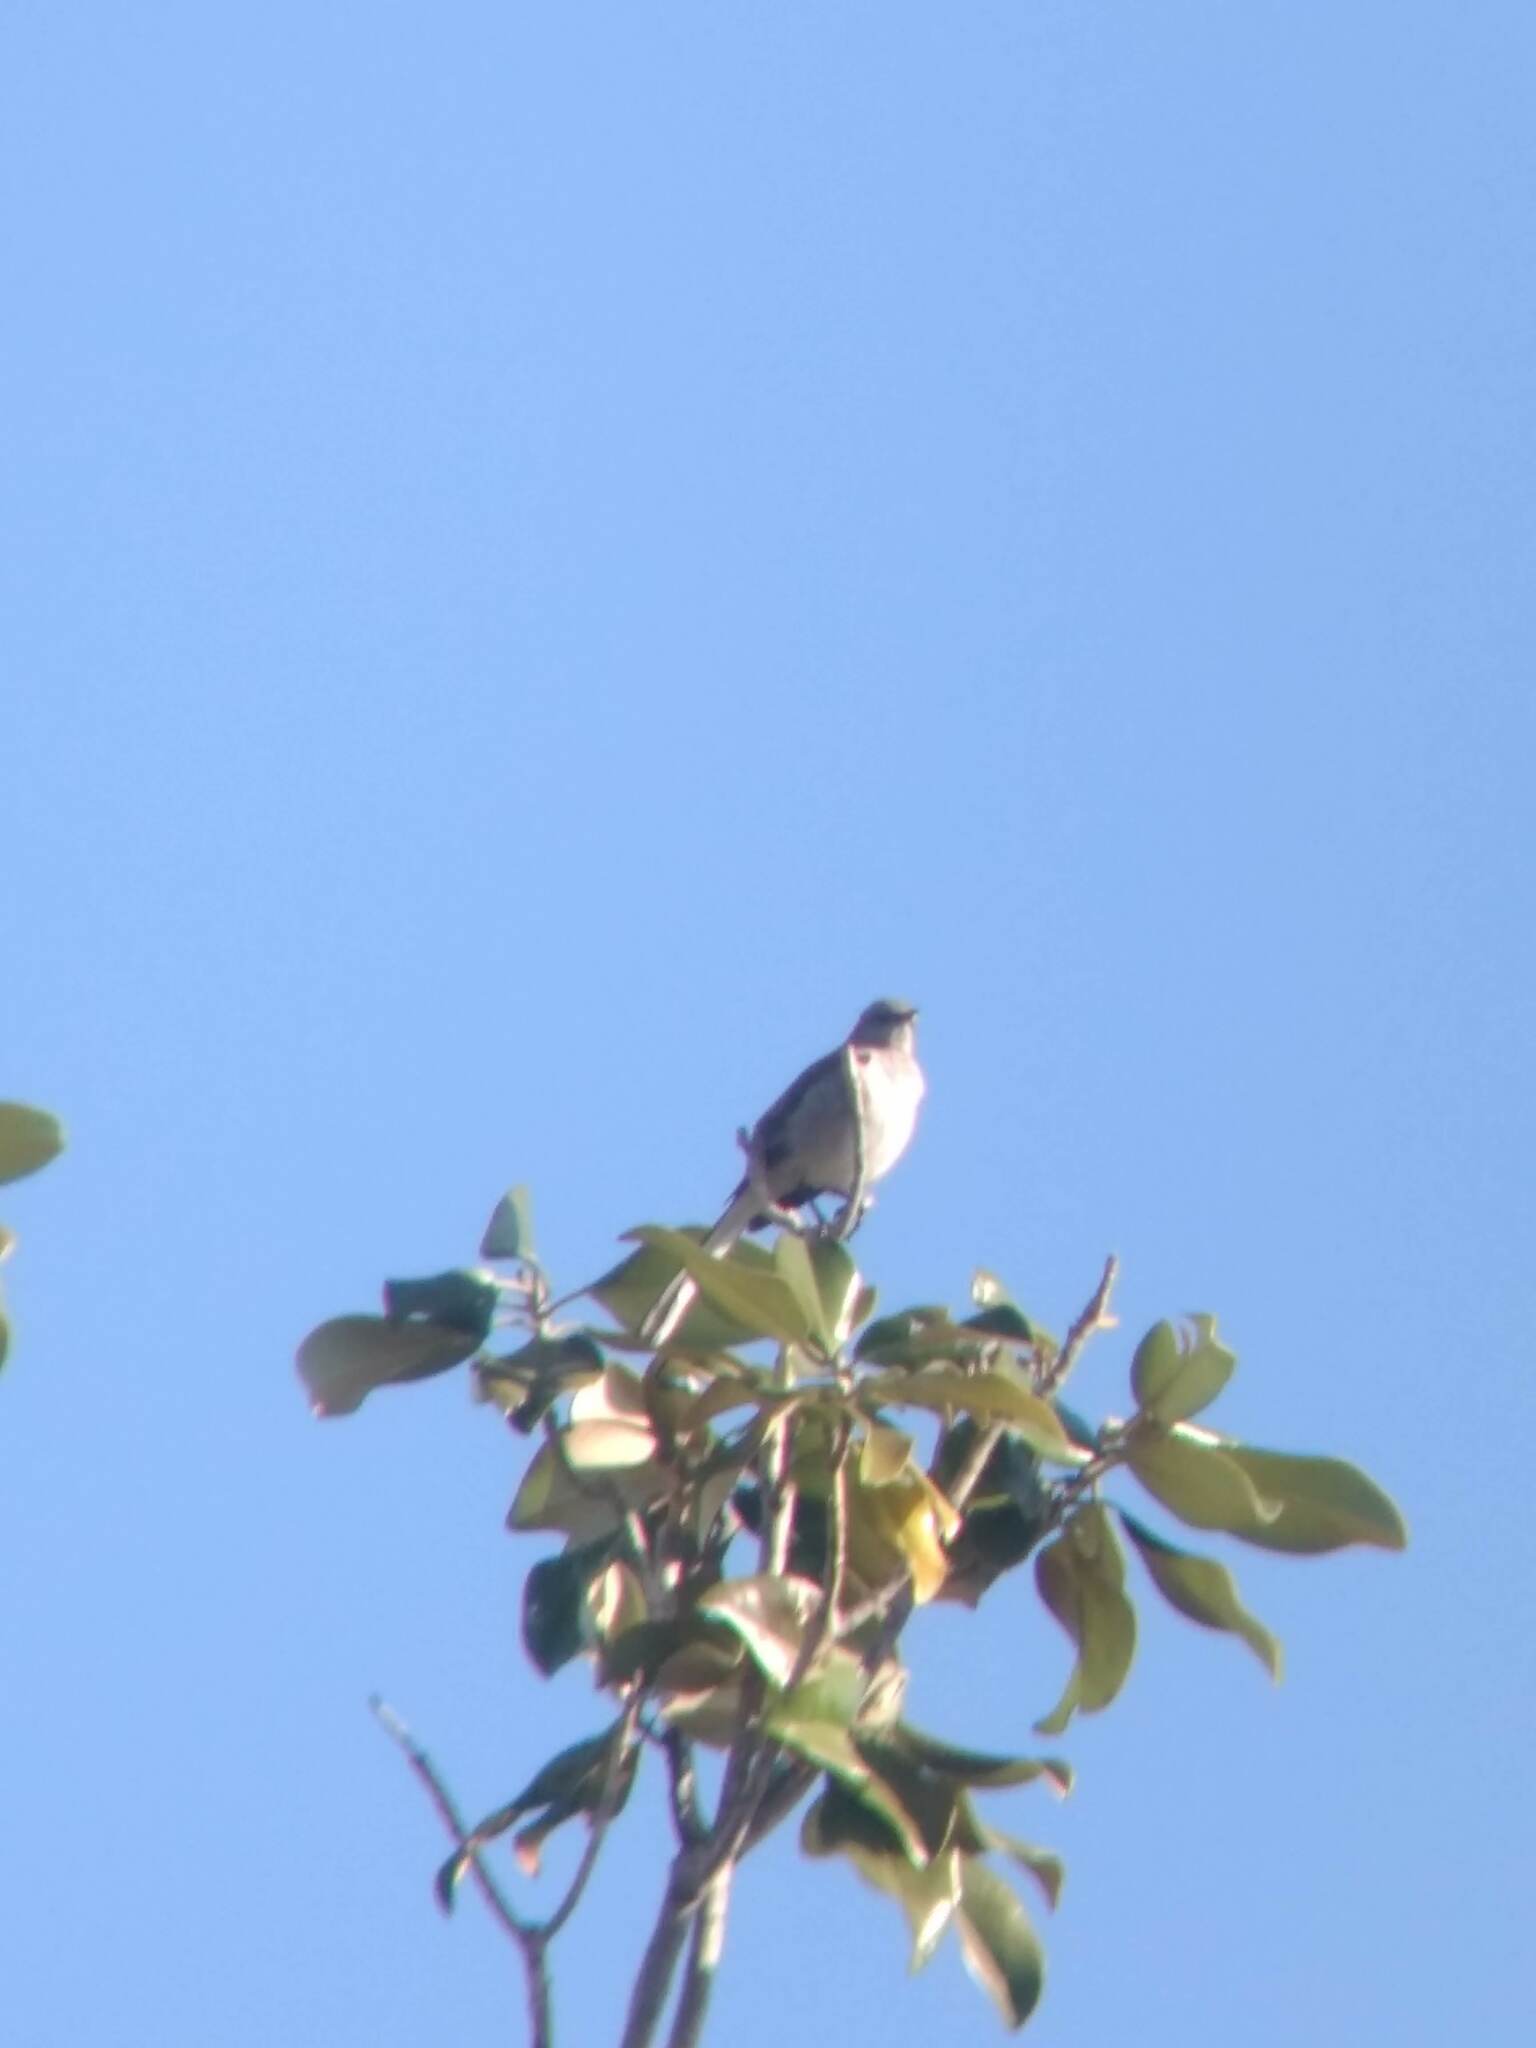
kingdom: Animalia
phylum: Chordata
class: Aves
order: Passeriformes
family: Mimidae
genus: Mimus
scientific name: Mimus polyglottos
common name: Northern mockingbird
